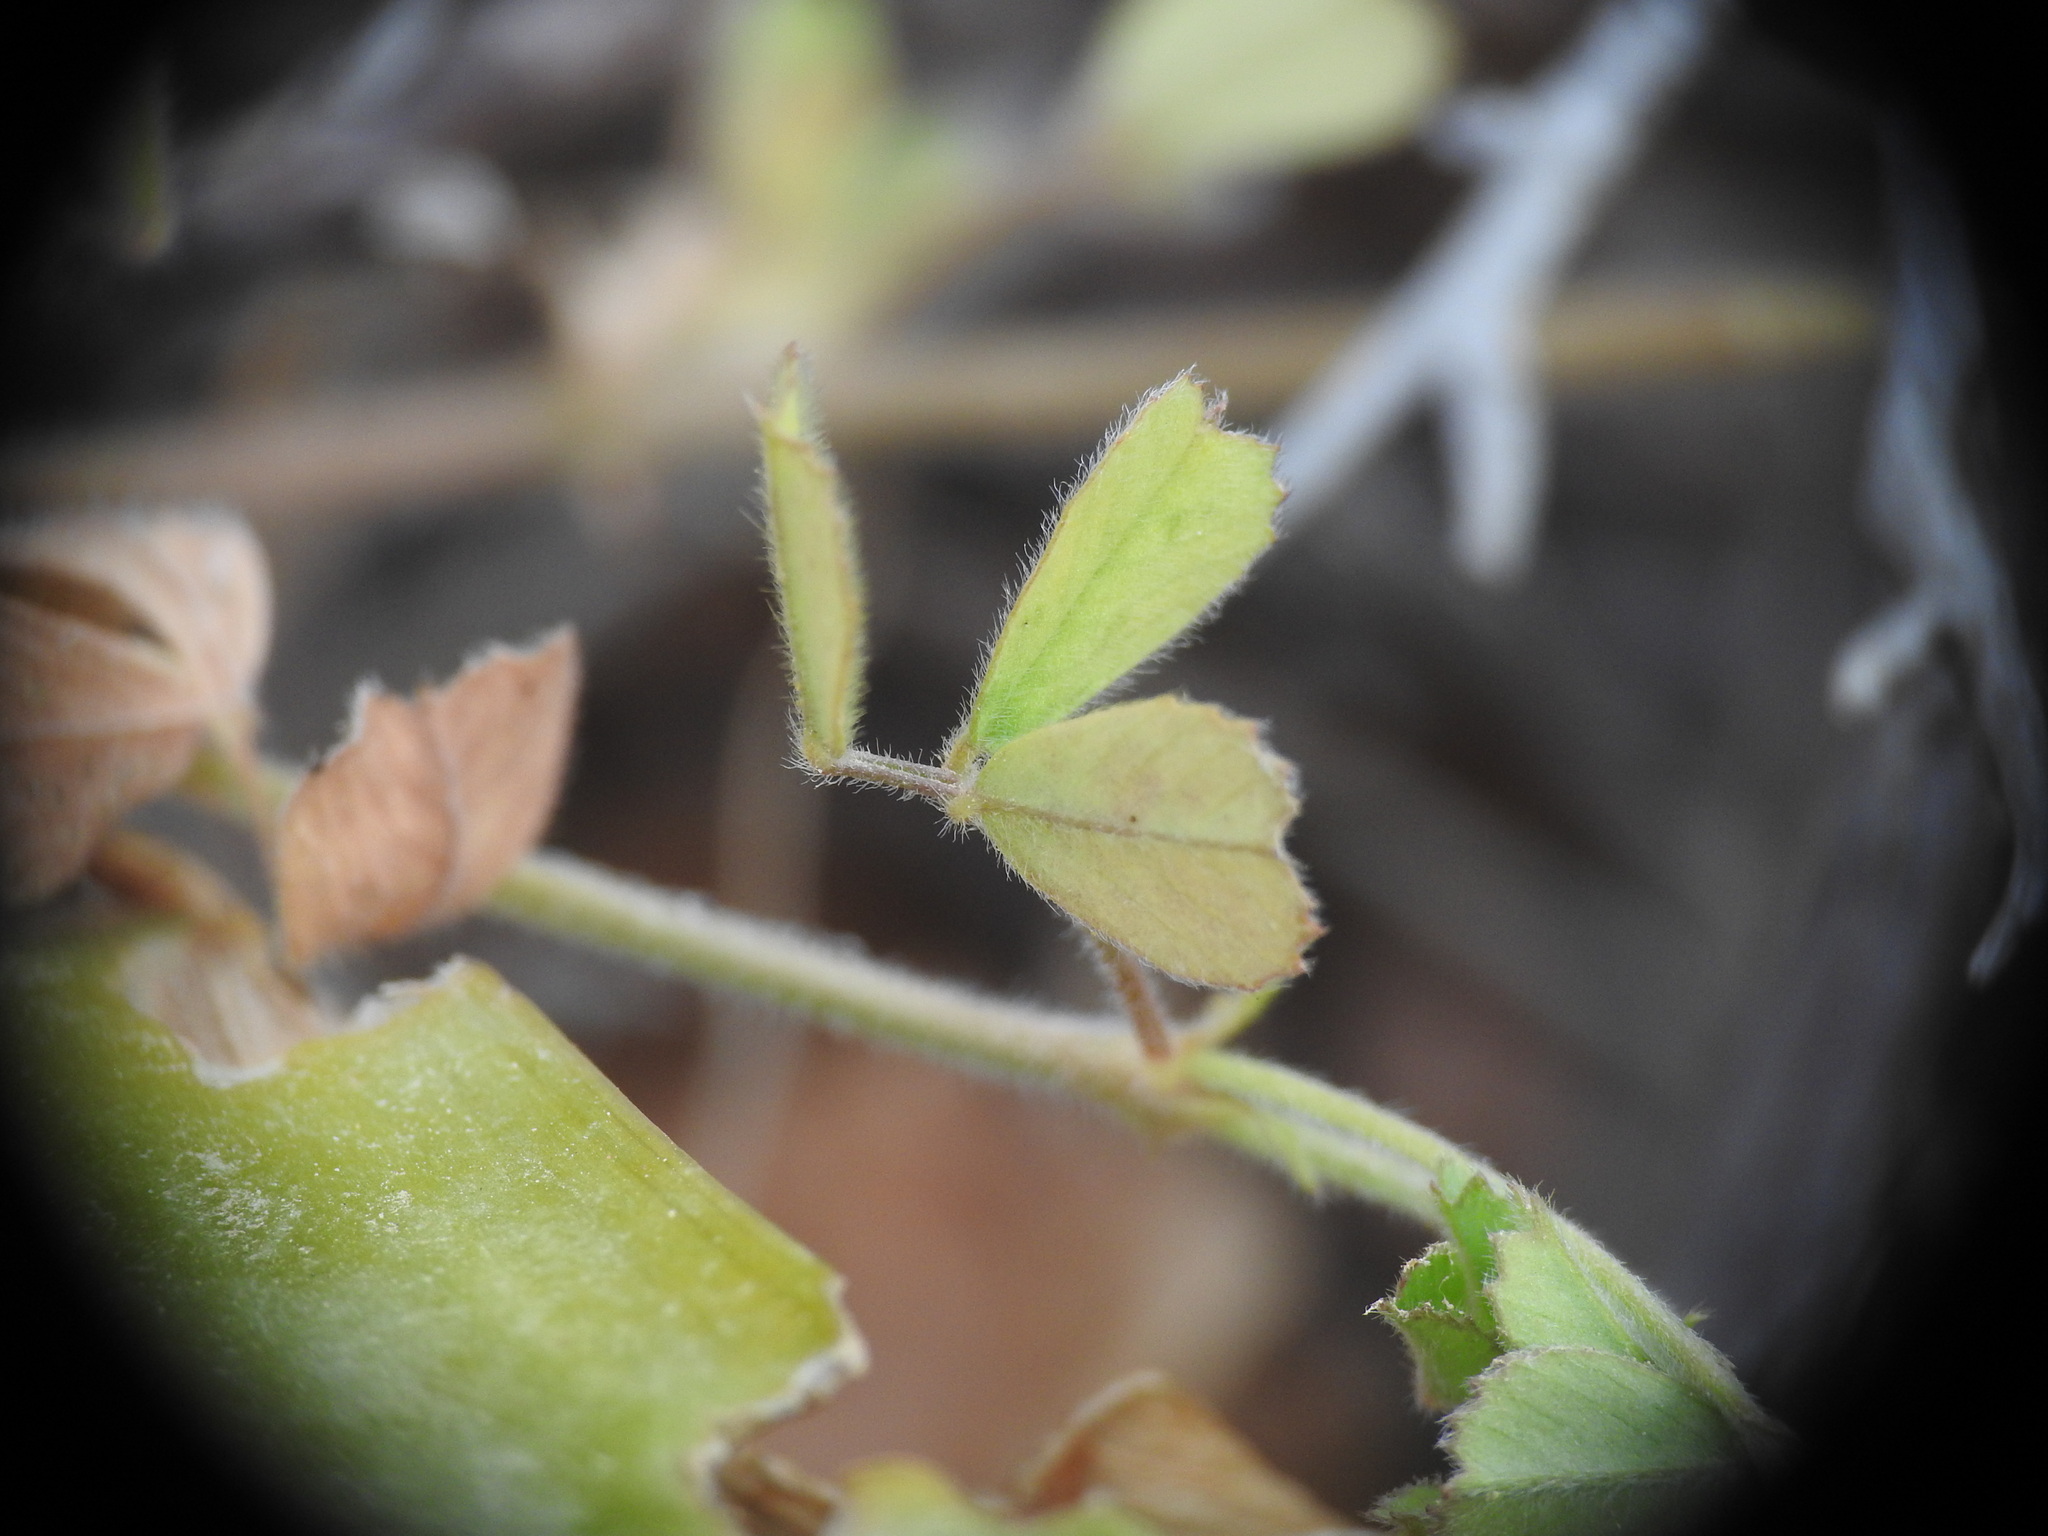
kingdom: Plantae
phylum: Tracheophyta
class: Magnoliopsida
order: Fabales
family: Fabaceae
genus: Medicago
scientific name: Medicago disciformis
